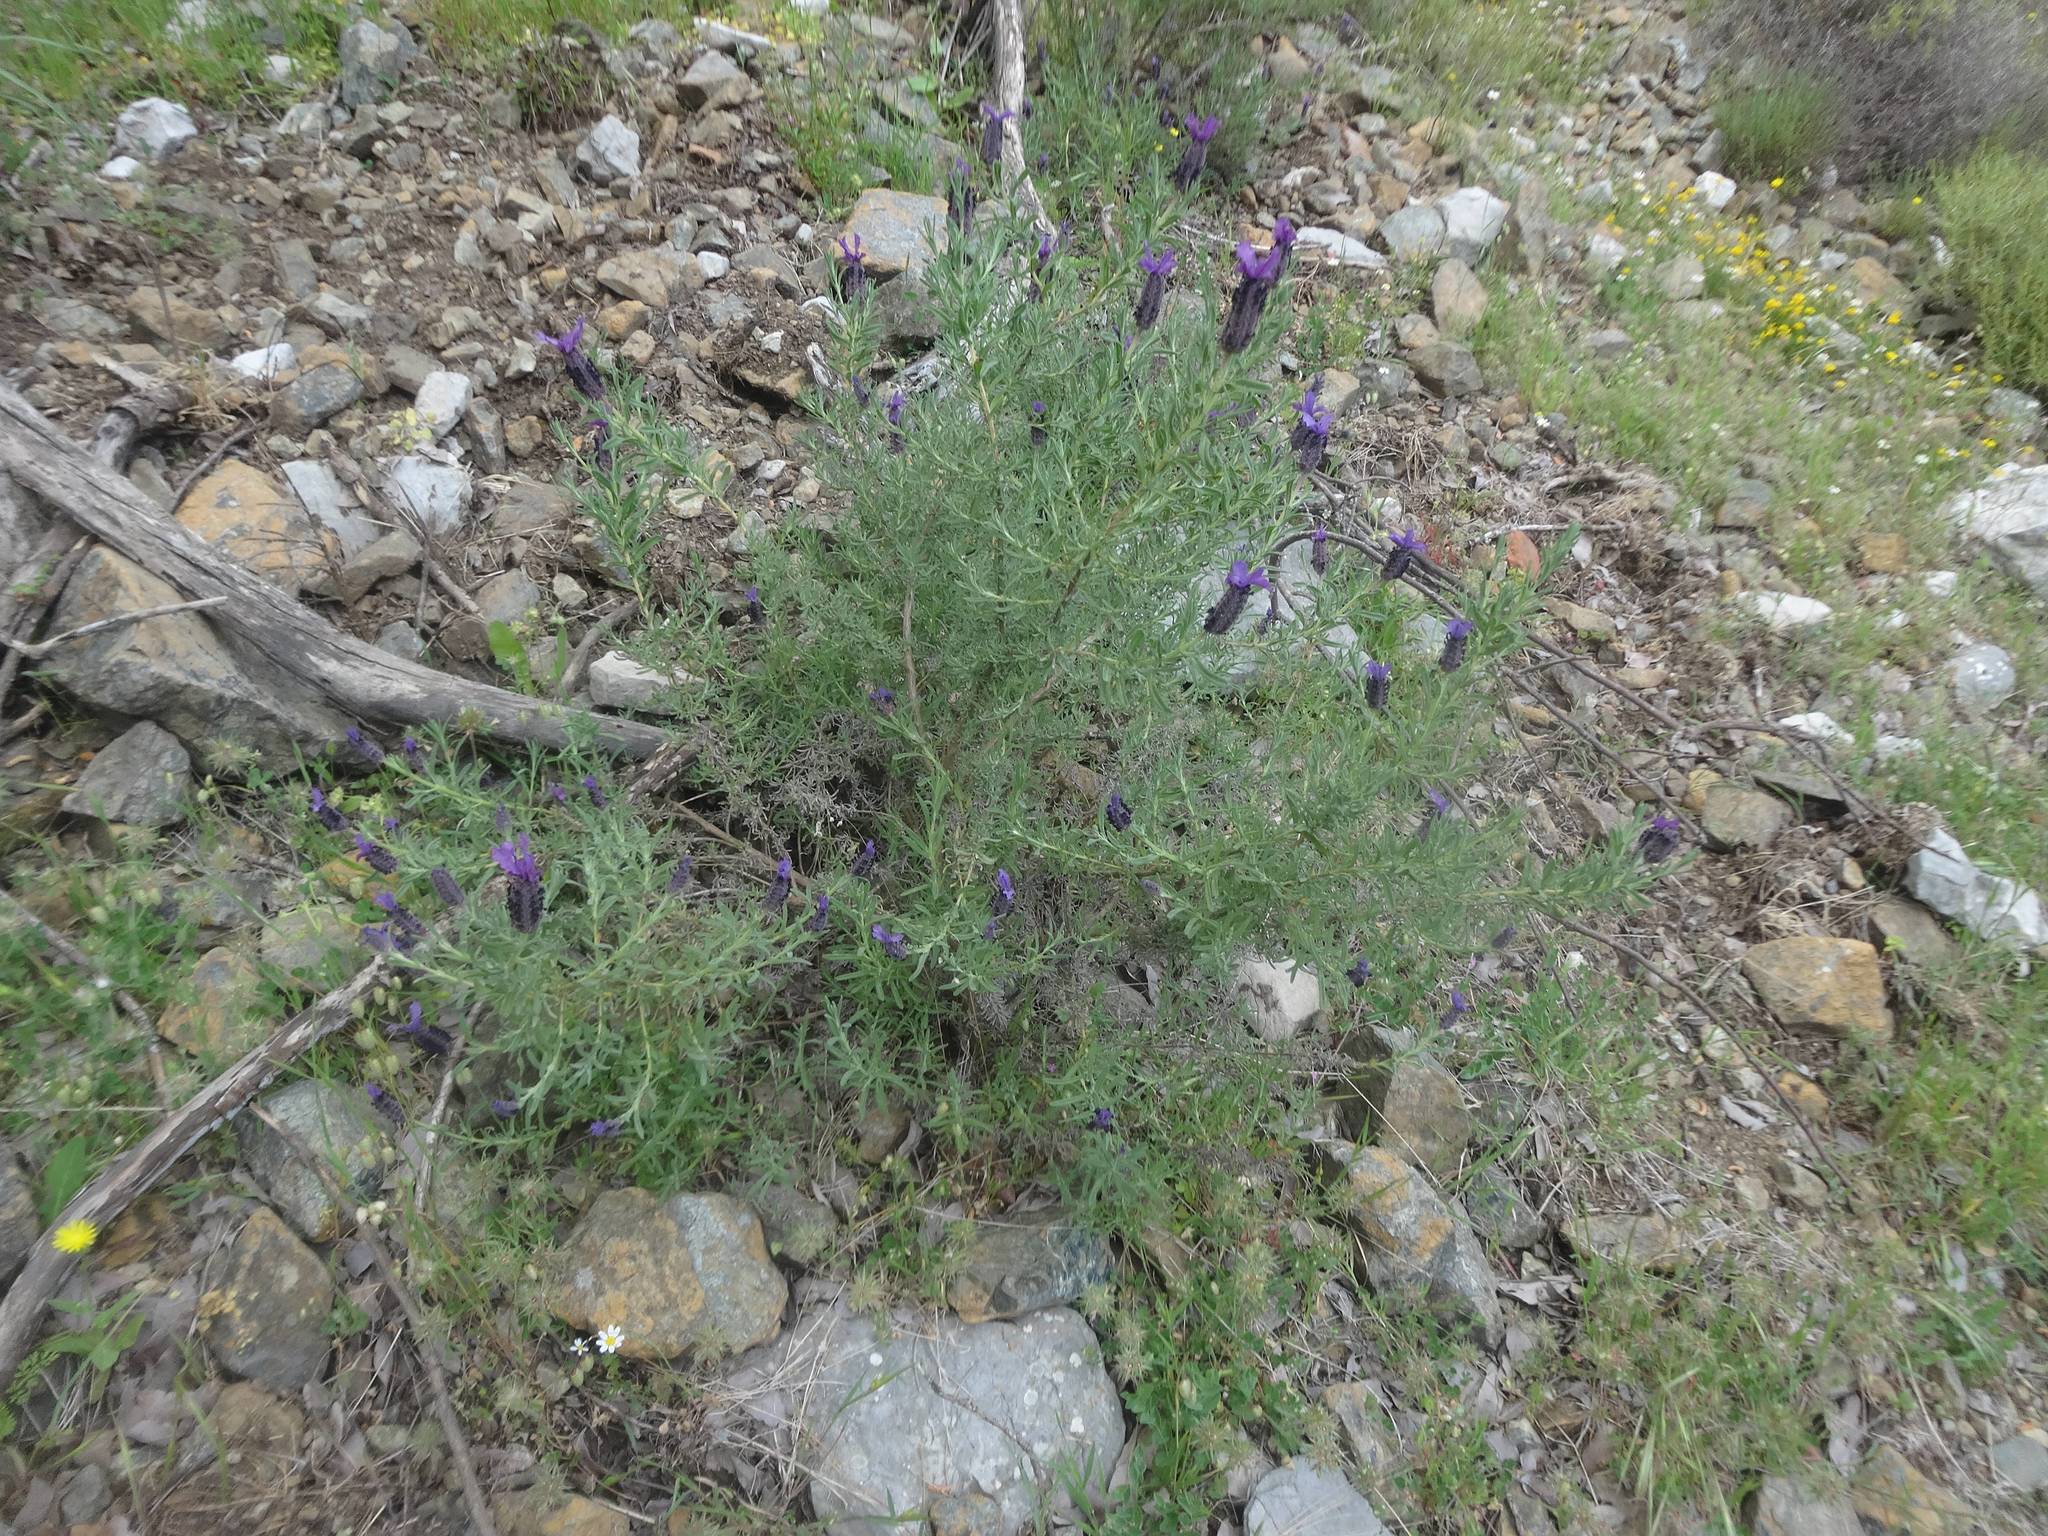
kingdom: Plantae
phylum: Tracheophyta
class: Magnoliopsida
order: Lamiales
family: Lamiaceae
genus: Lavandula
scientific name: Lavandula stoechas
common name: French lavender
